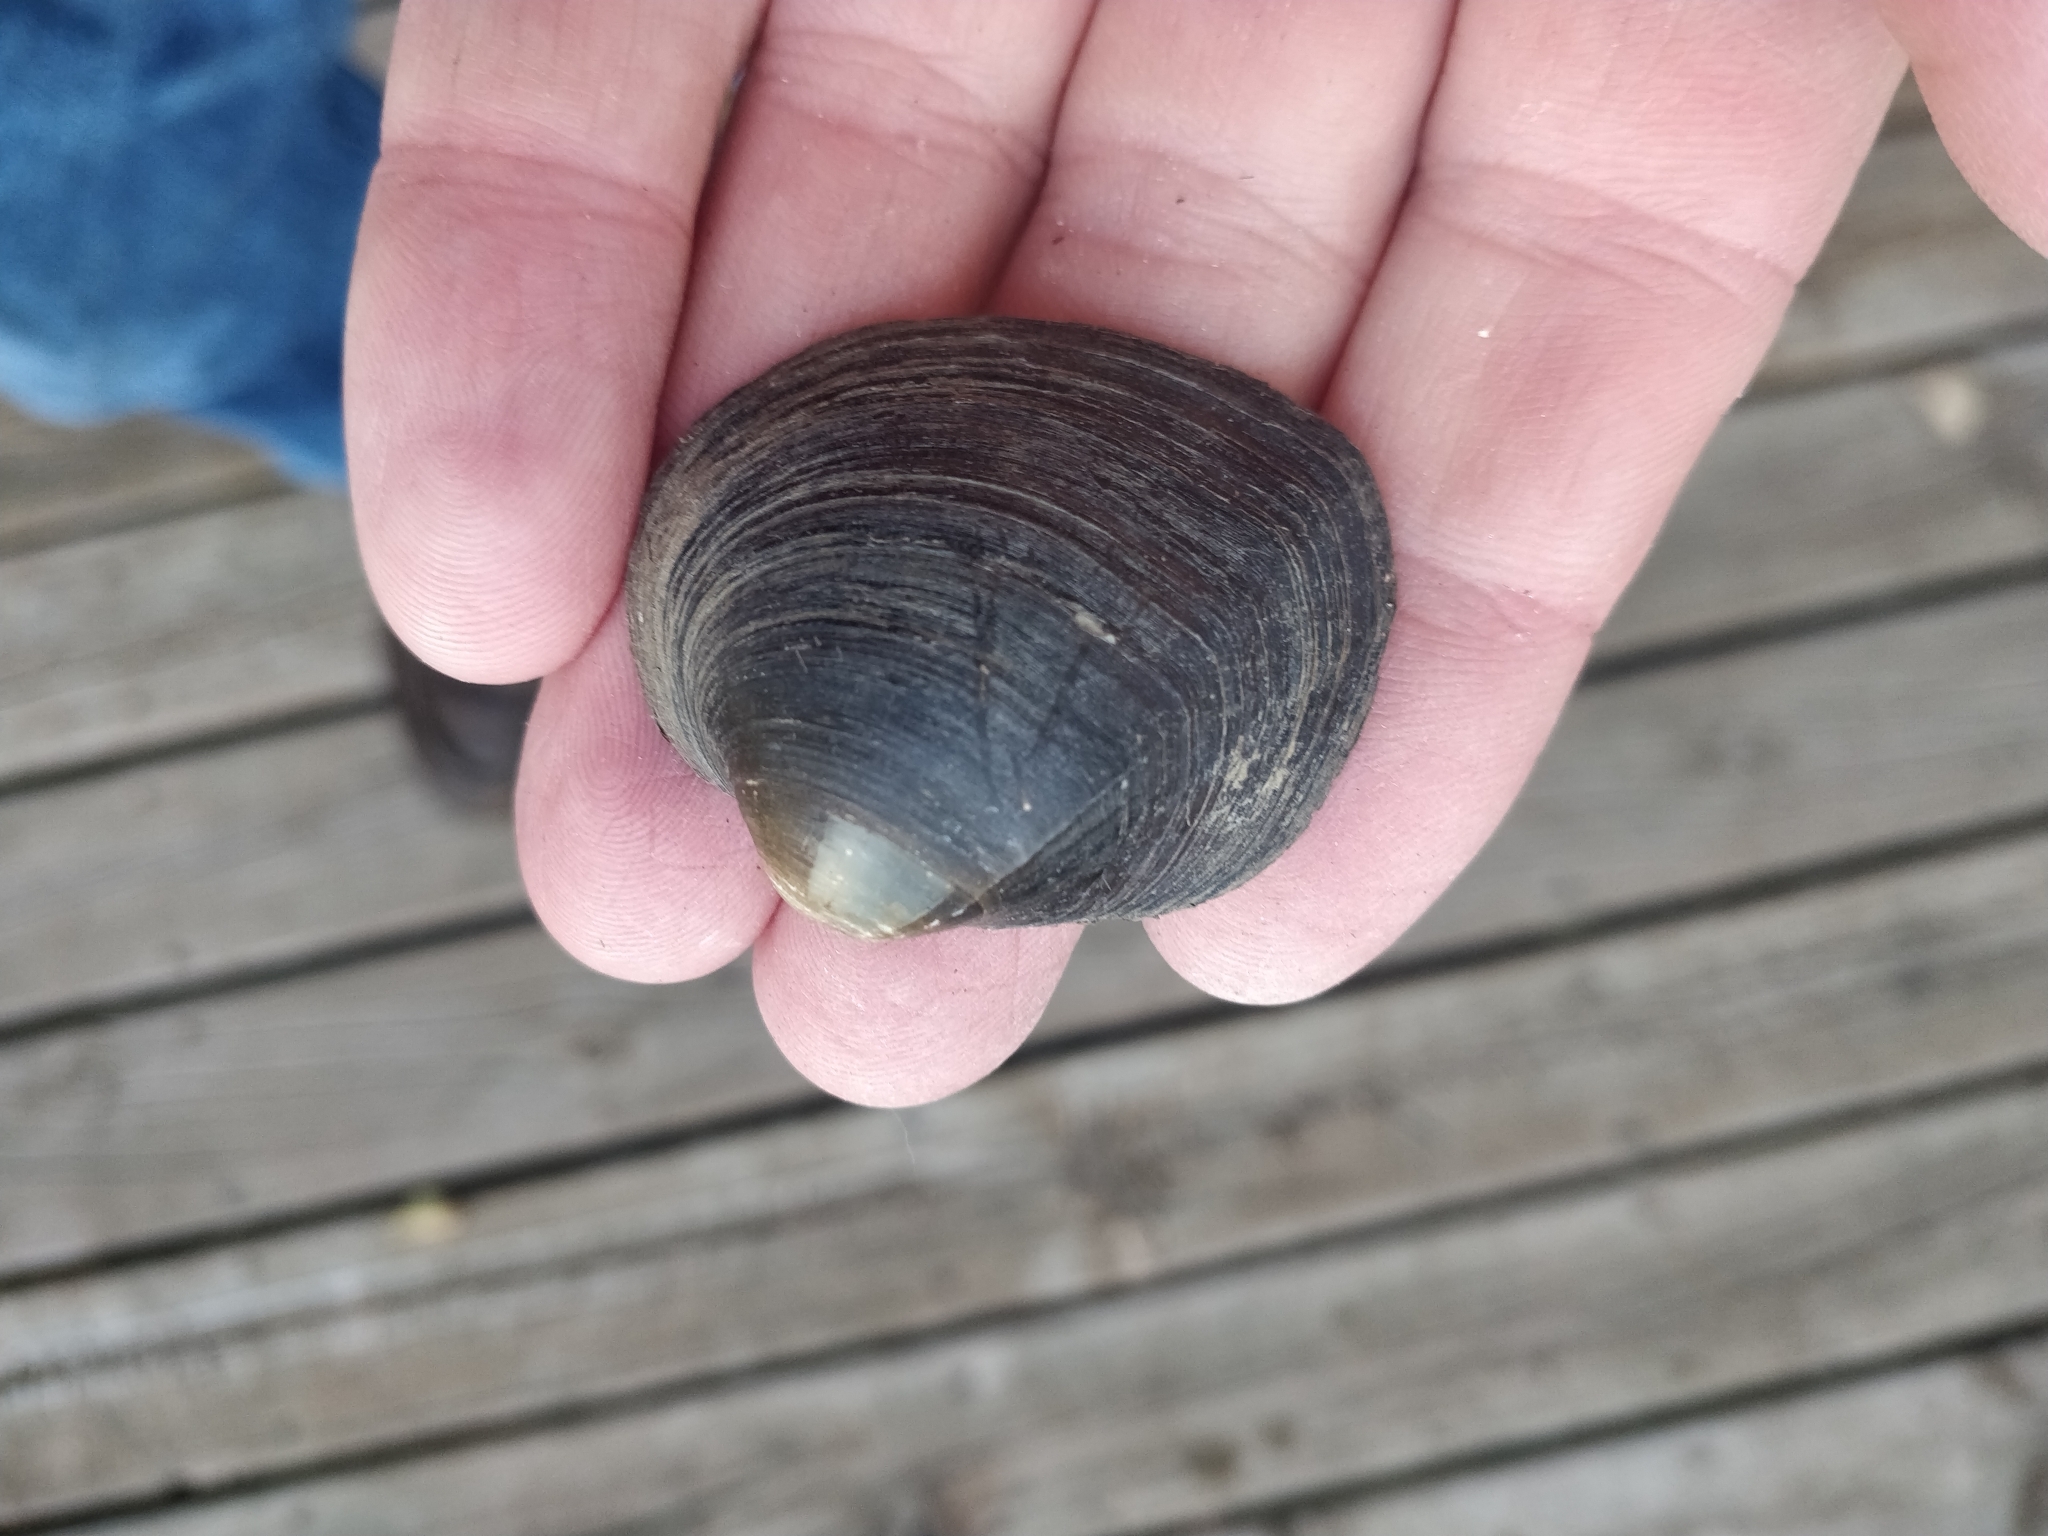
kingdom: Animalia
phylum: Mollusca
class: Bivalvia
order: Unionida
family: Unionidae
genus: Cyclonaias
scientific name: Cyclonaias pustulosa
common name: Pimpleback
